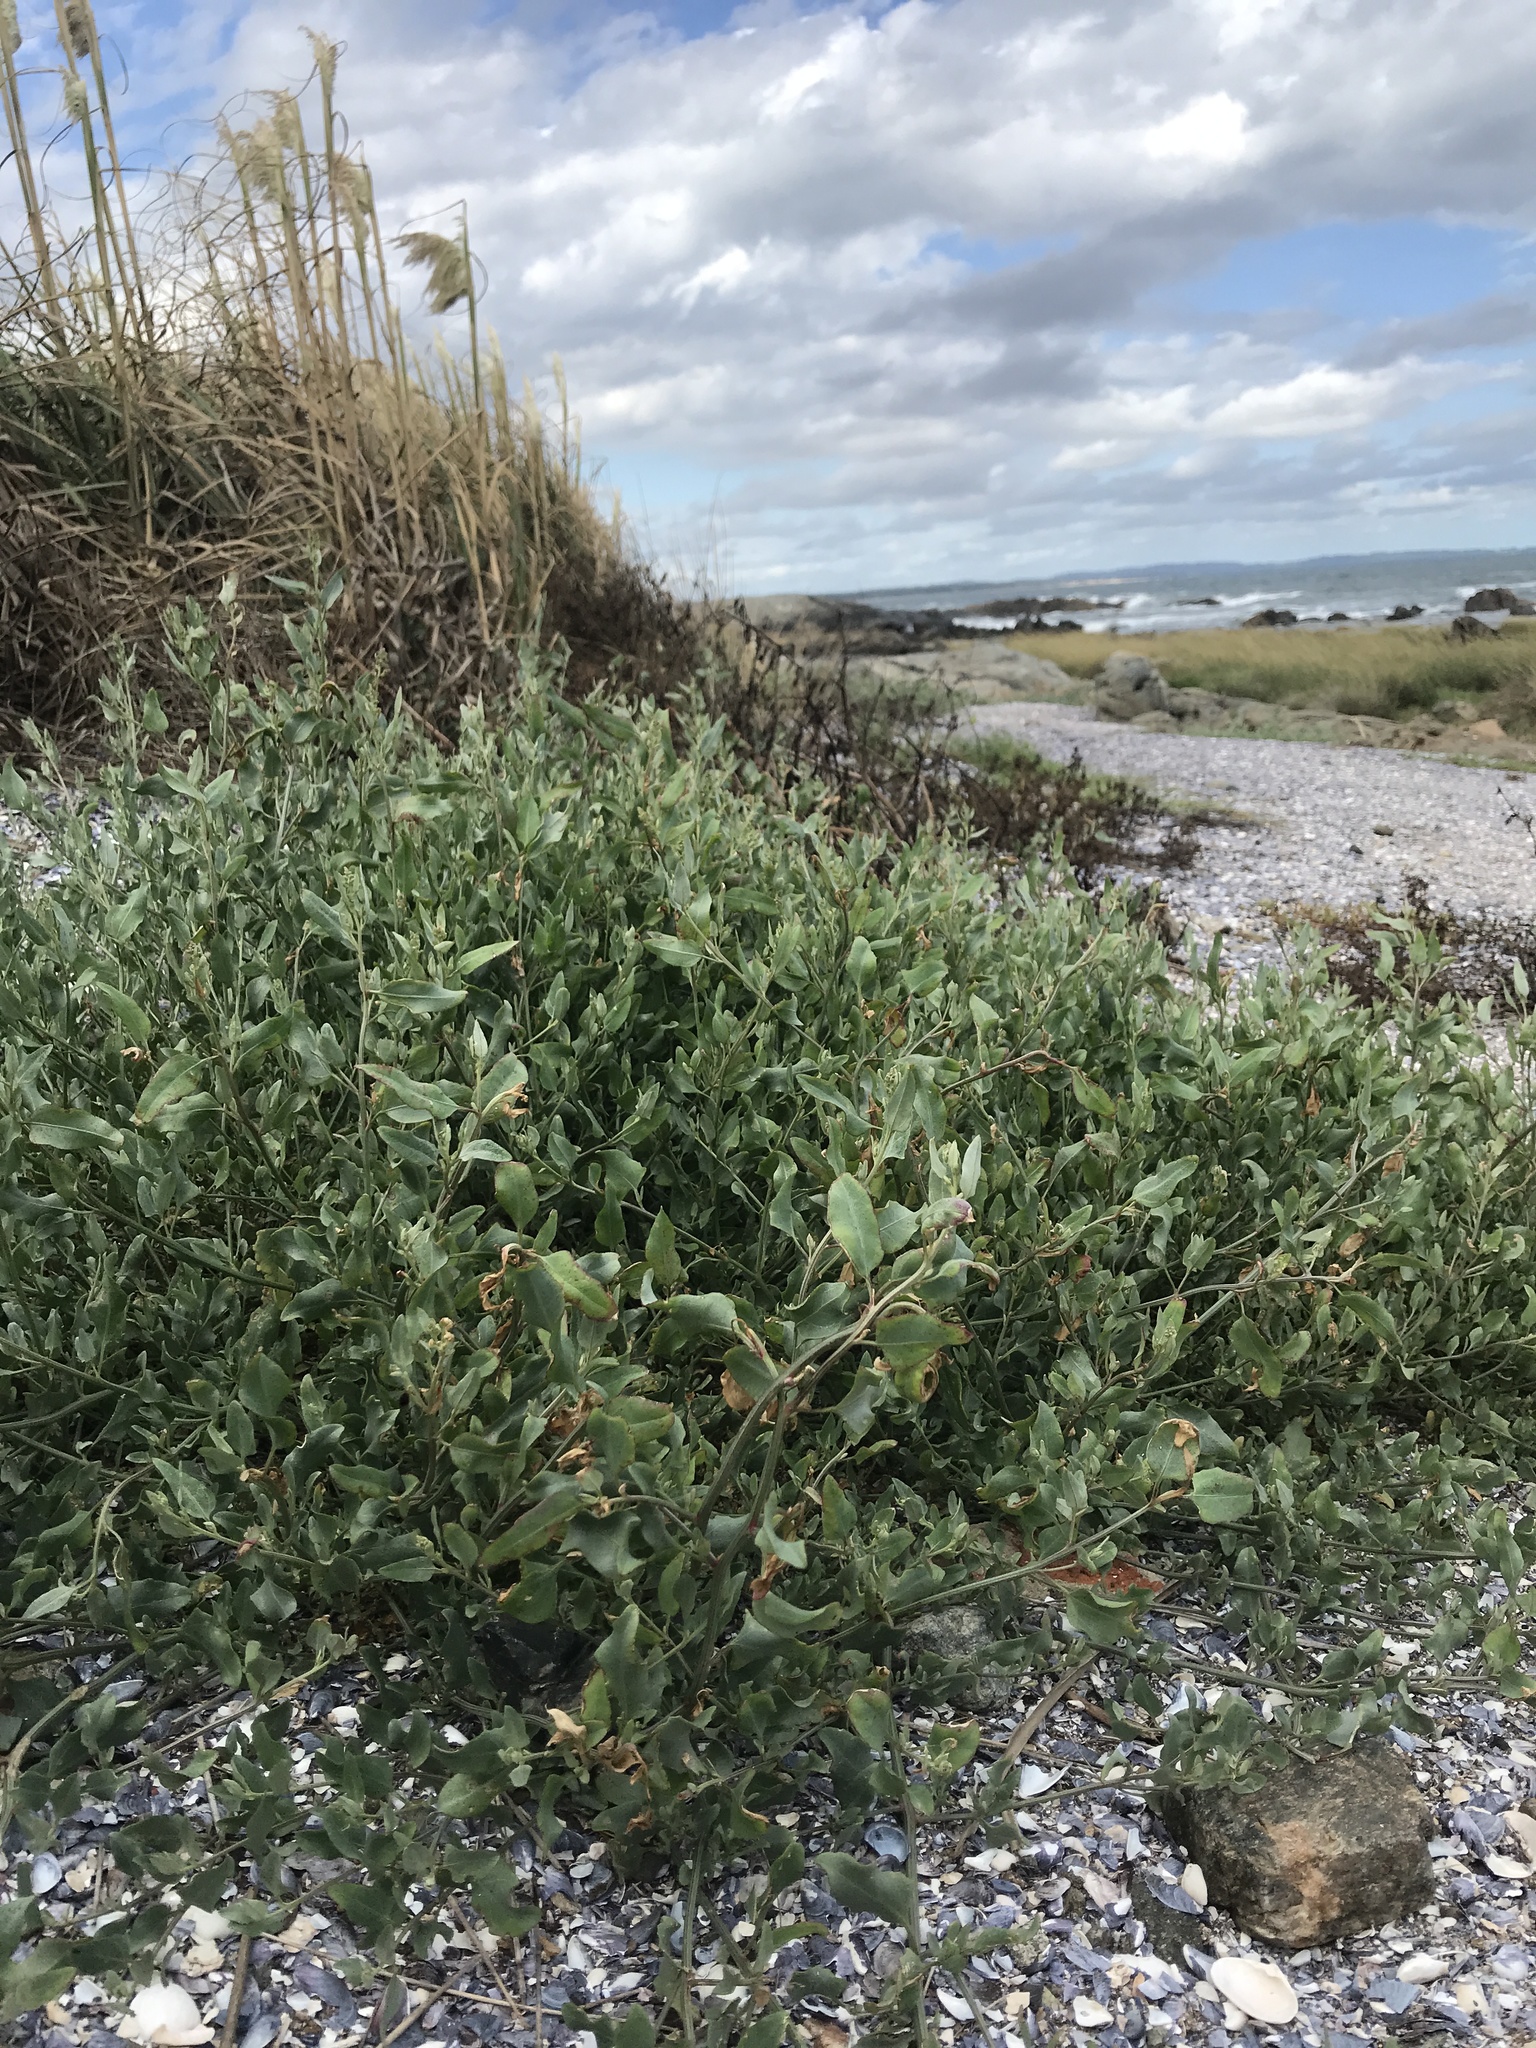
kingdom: Plantae
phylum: Tracheophyta
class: Magnoliopsida
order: Caryophyllales
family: Amaranthaceae
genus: Atriplex
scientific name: Atriplex prostrata
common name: Spear-leaved orache
